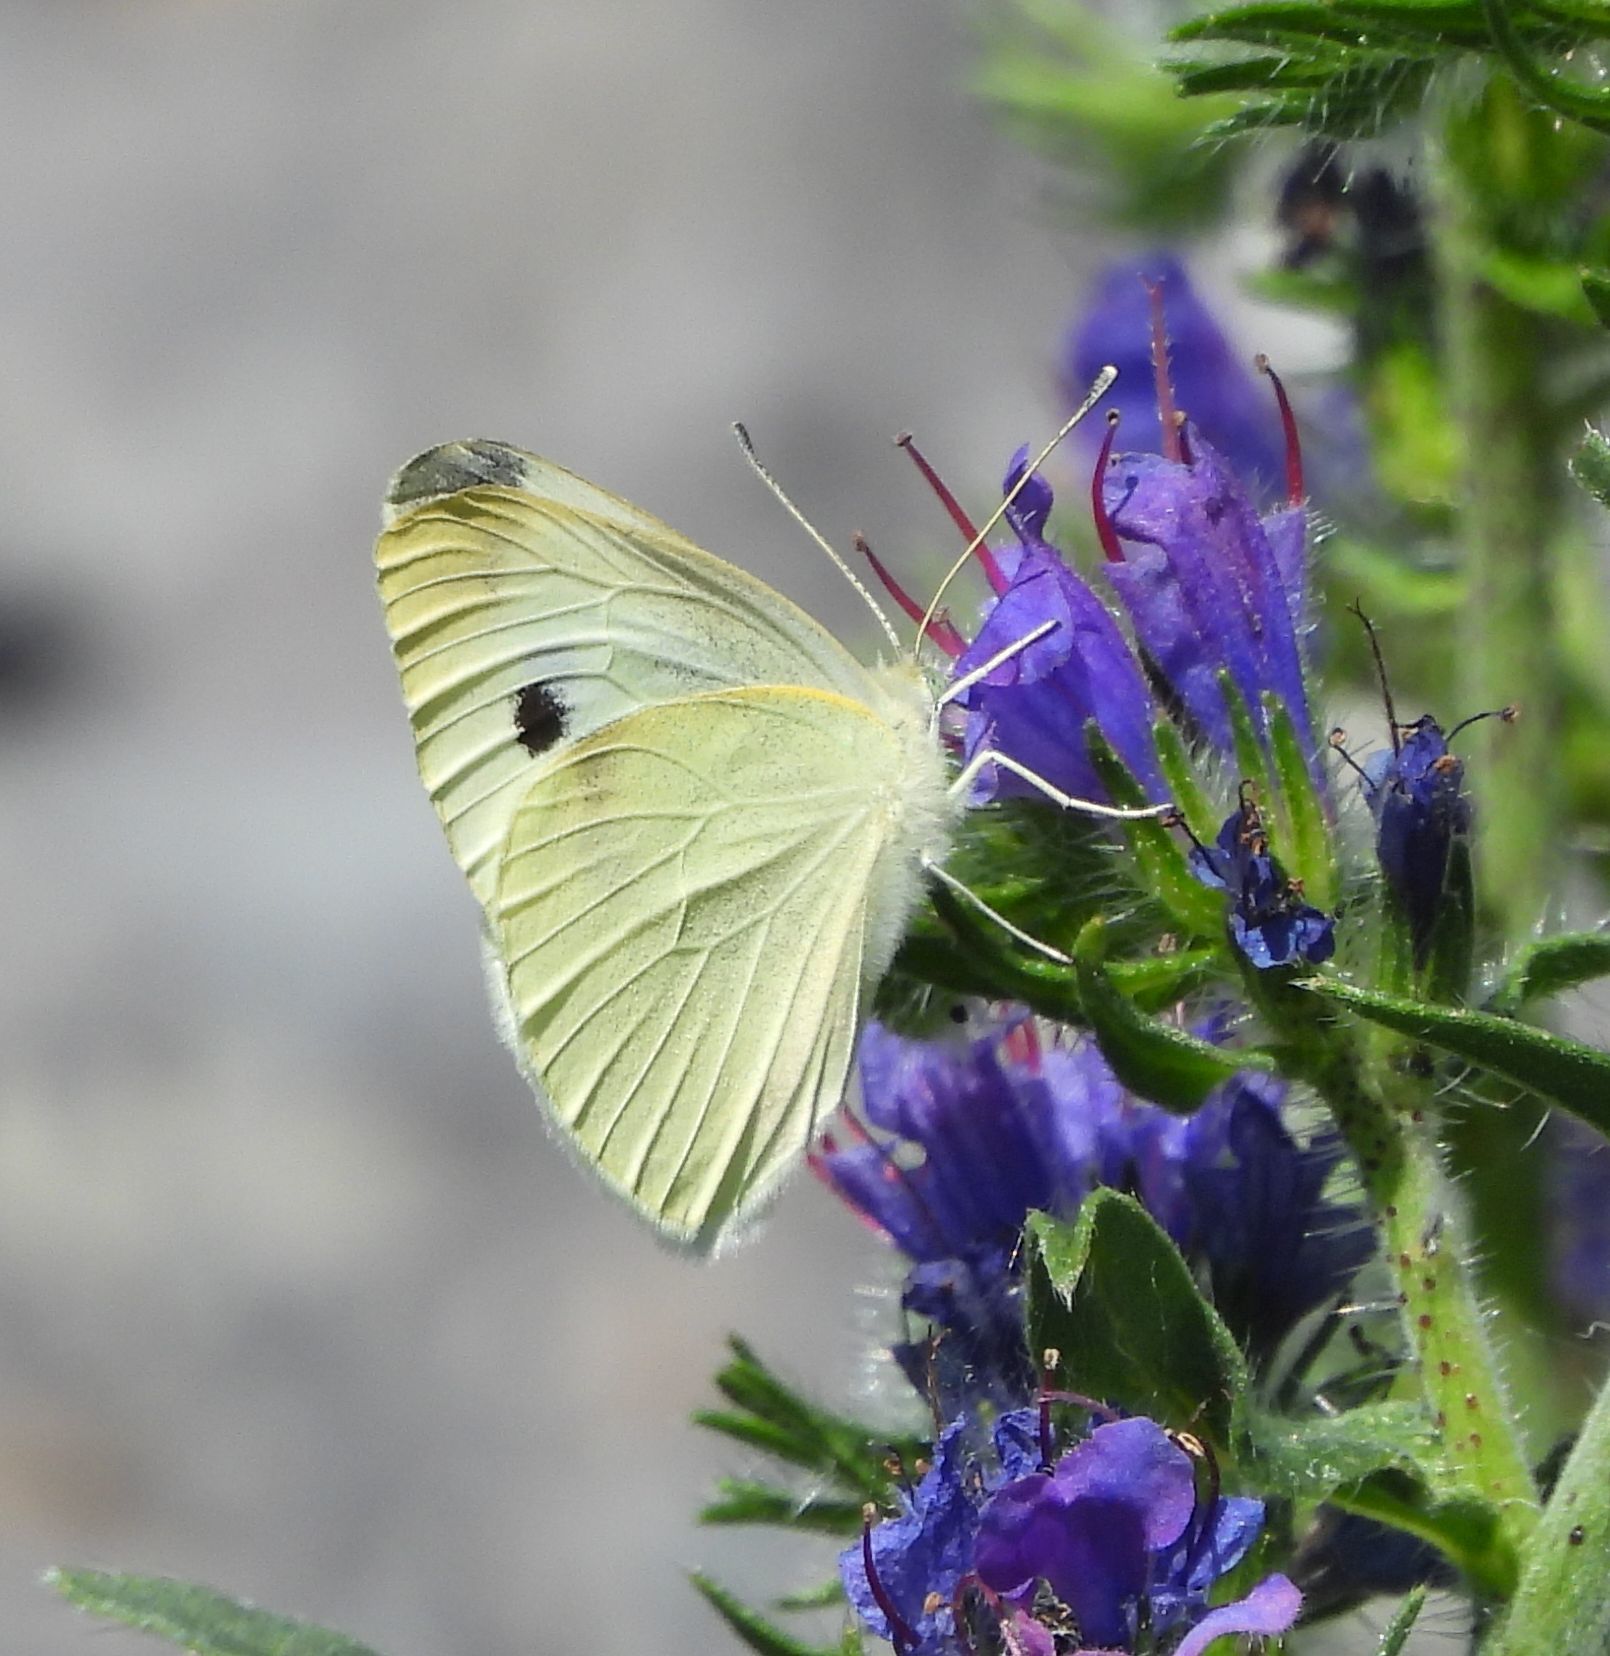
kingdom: Animalia
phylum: Arthropoda
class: Insecta
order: Lepidoptera
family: Pieridae
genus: Pieris
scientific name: Pieris rapae
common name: Small white
